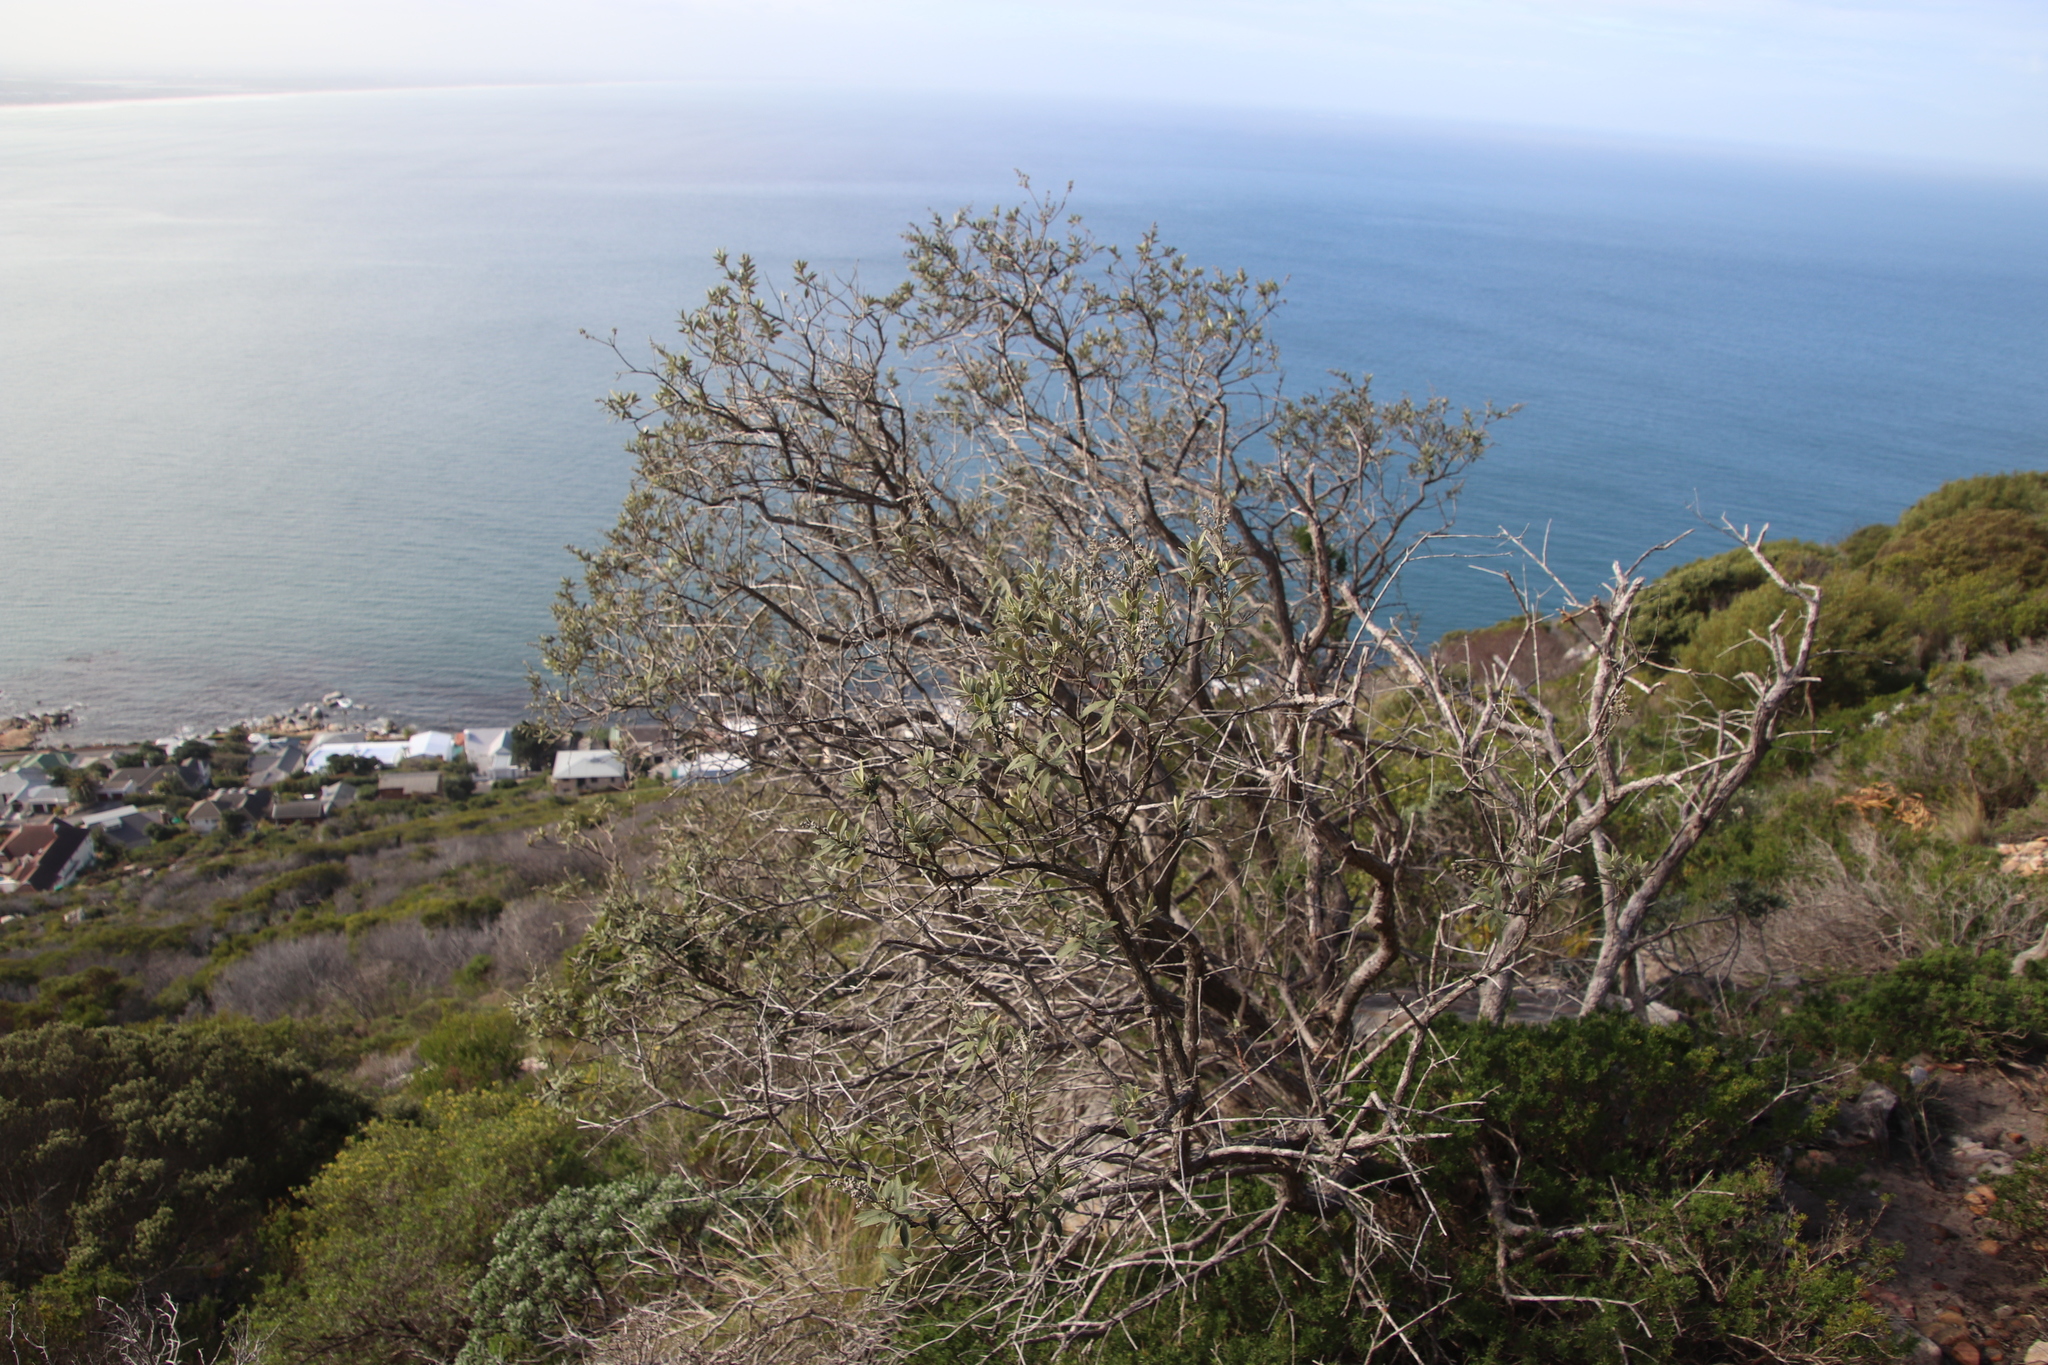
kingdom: Plantae
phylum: Tracheophyta
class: Magnoliopsida
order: Asterales
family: Asteraceae
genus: Tarchonanthus
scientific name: Tarchonanthus littoralis
